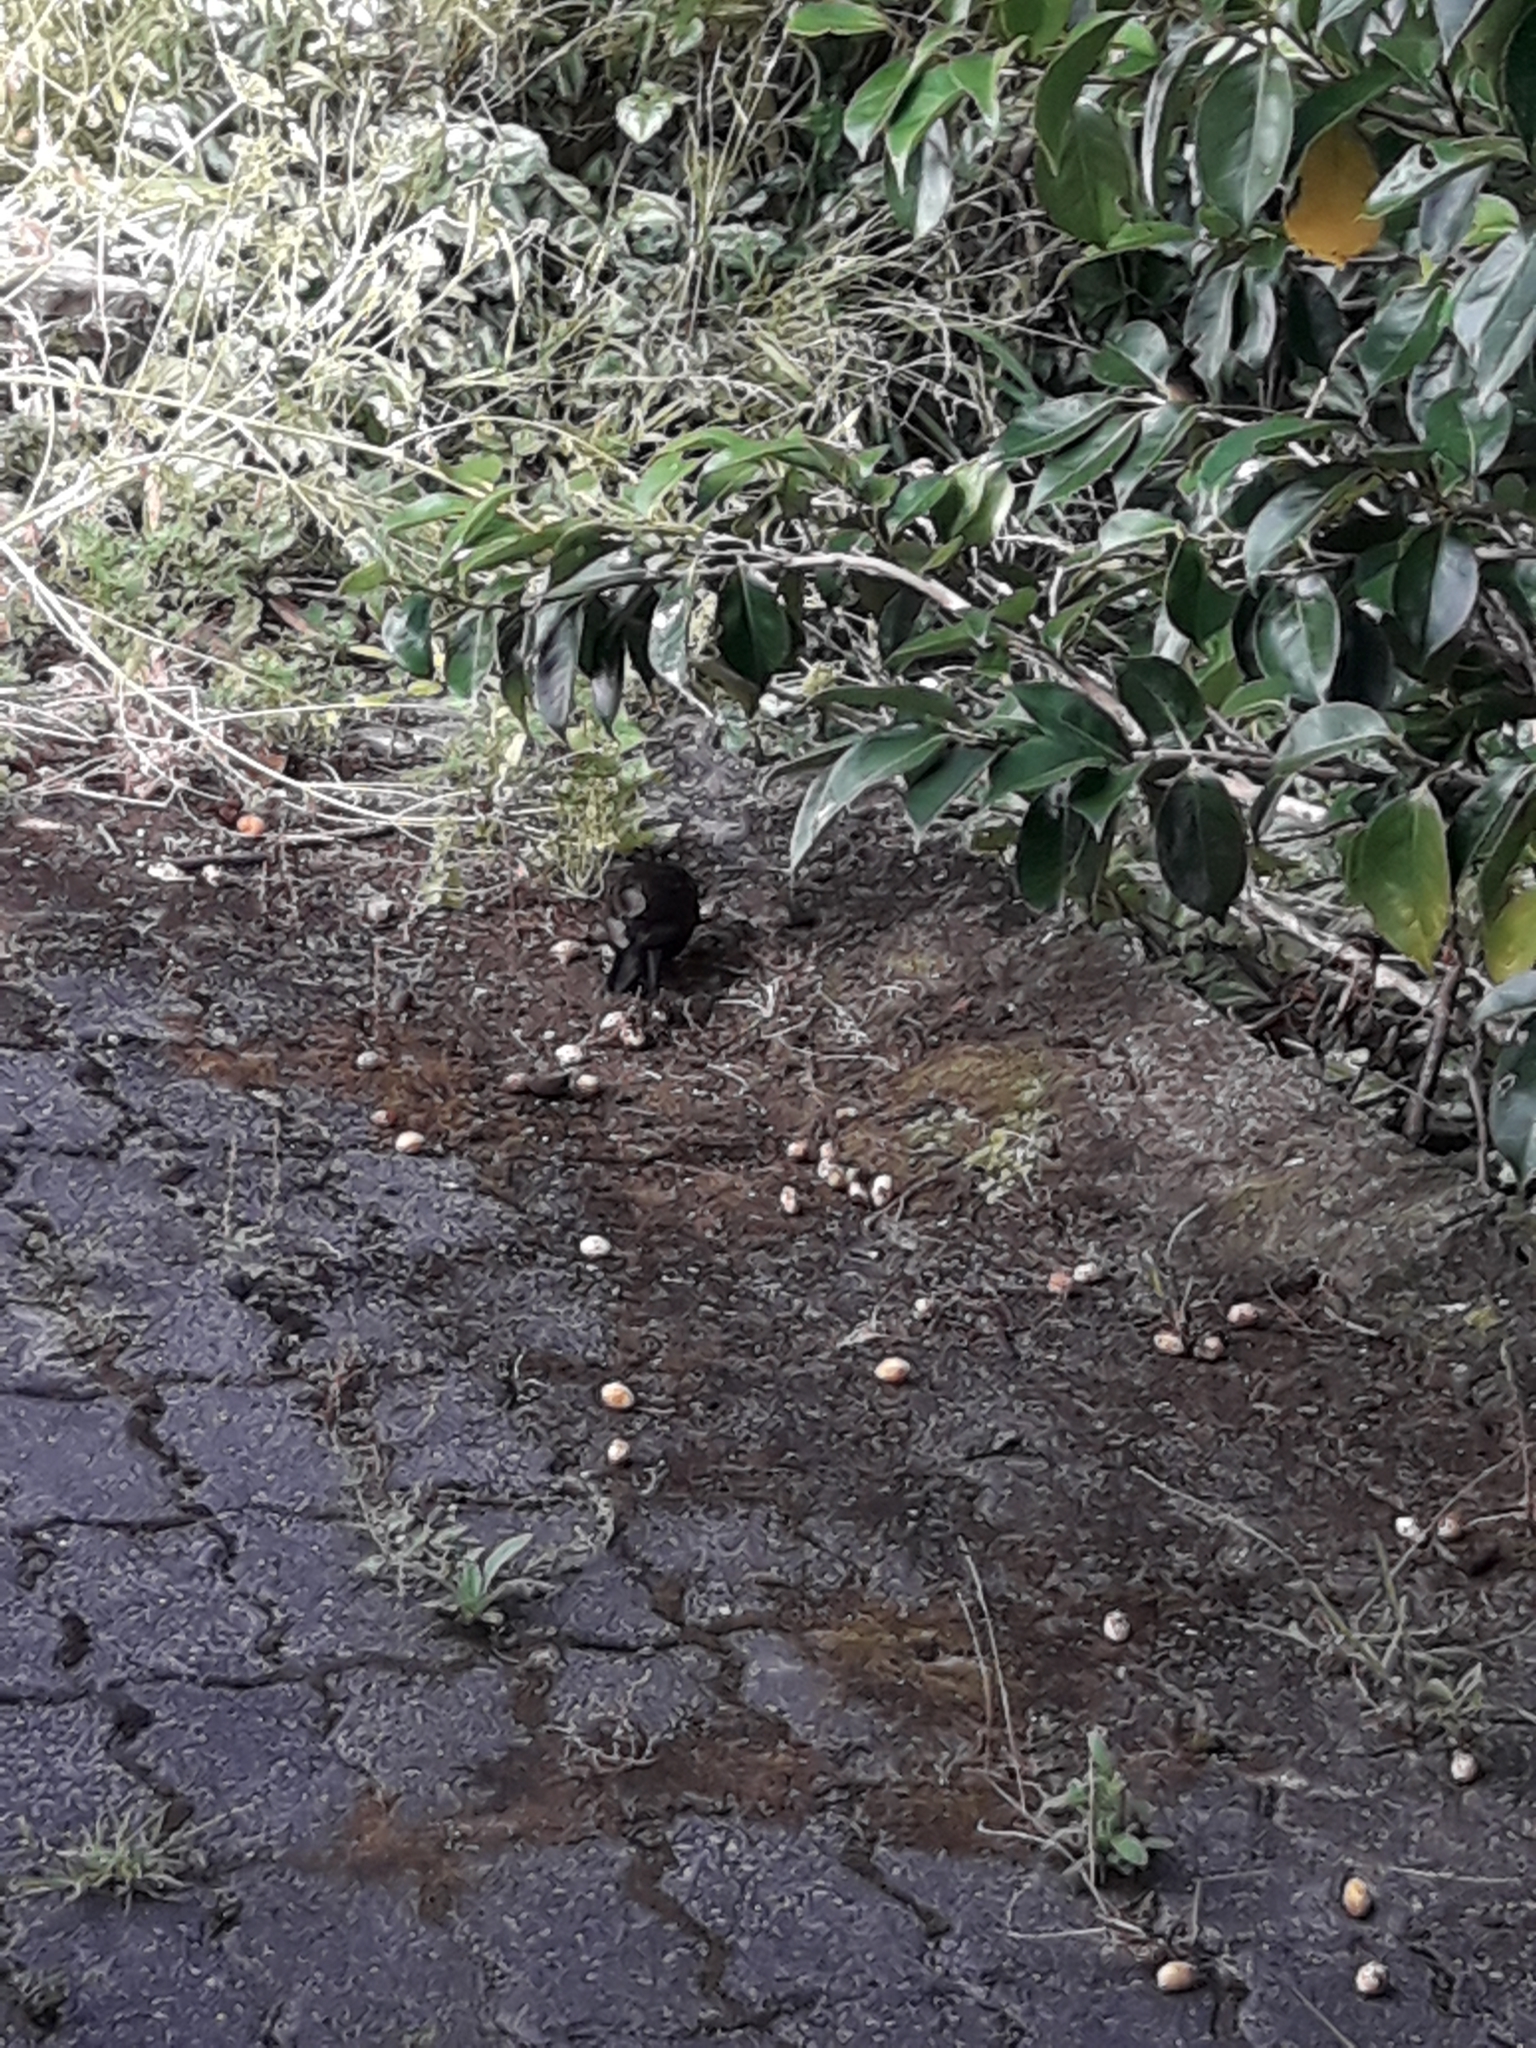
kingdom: Animalia
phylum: Chordata
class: Aves
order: Passeriformes
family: Turdidae
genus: Turdus
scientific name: Turdus merula
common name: Common blackbird
